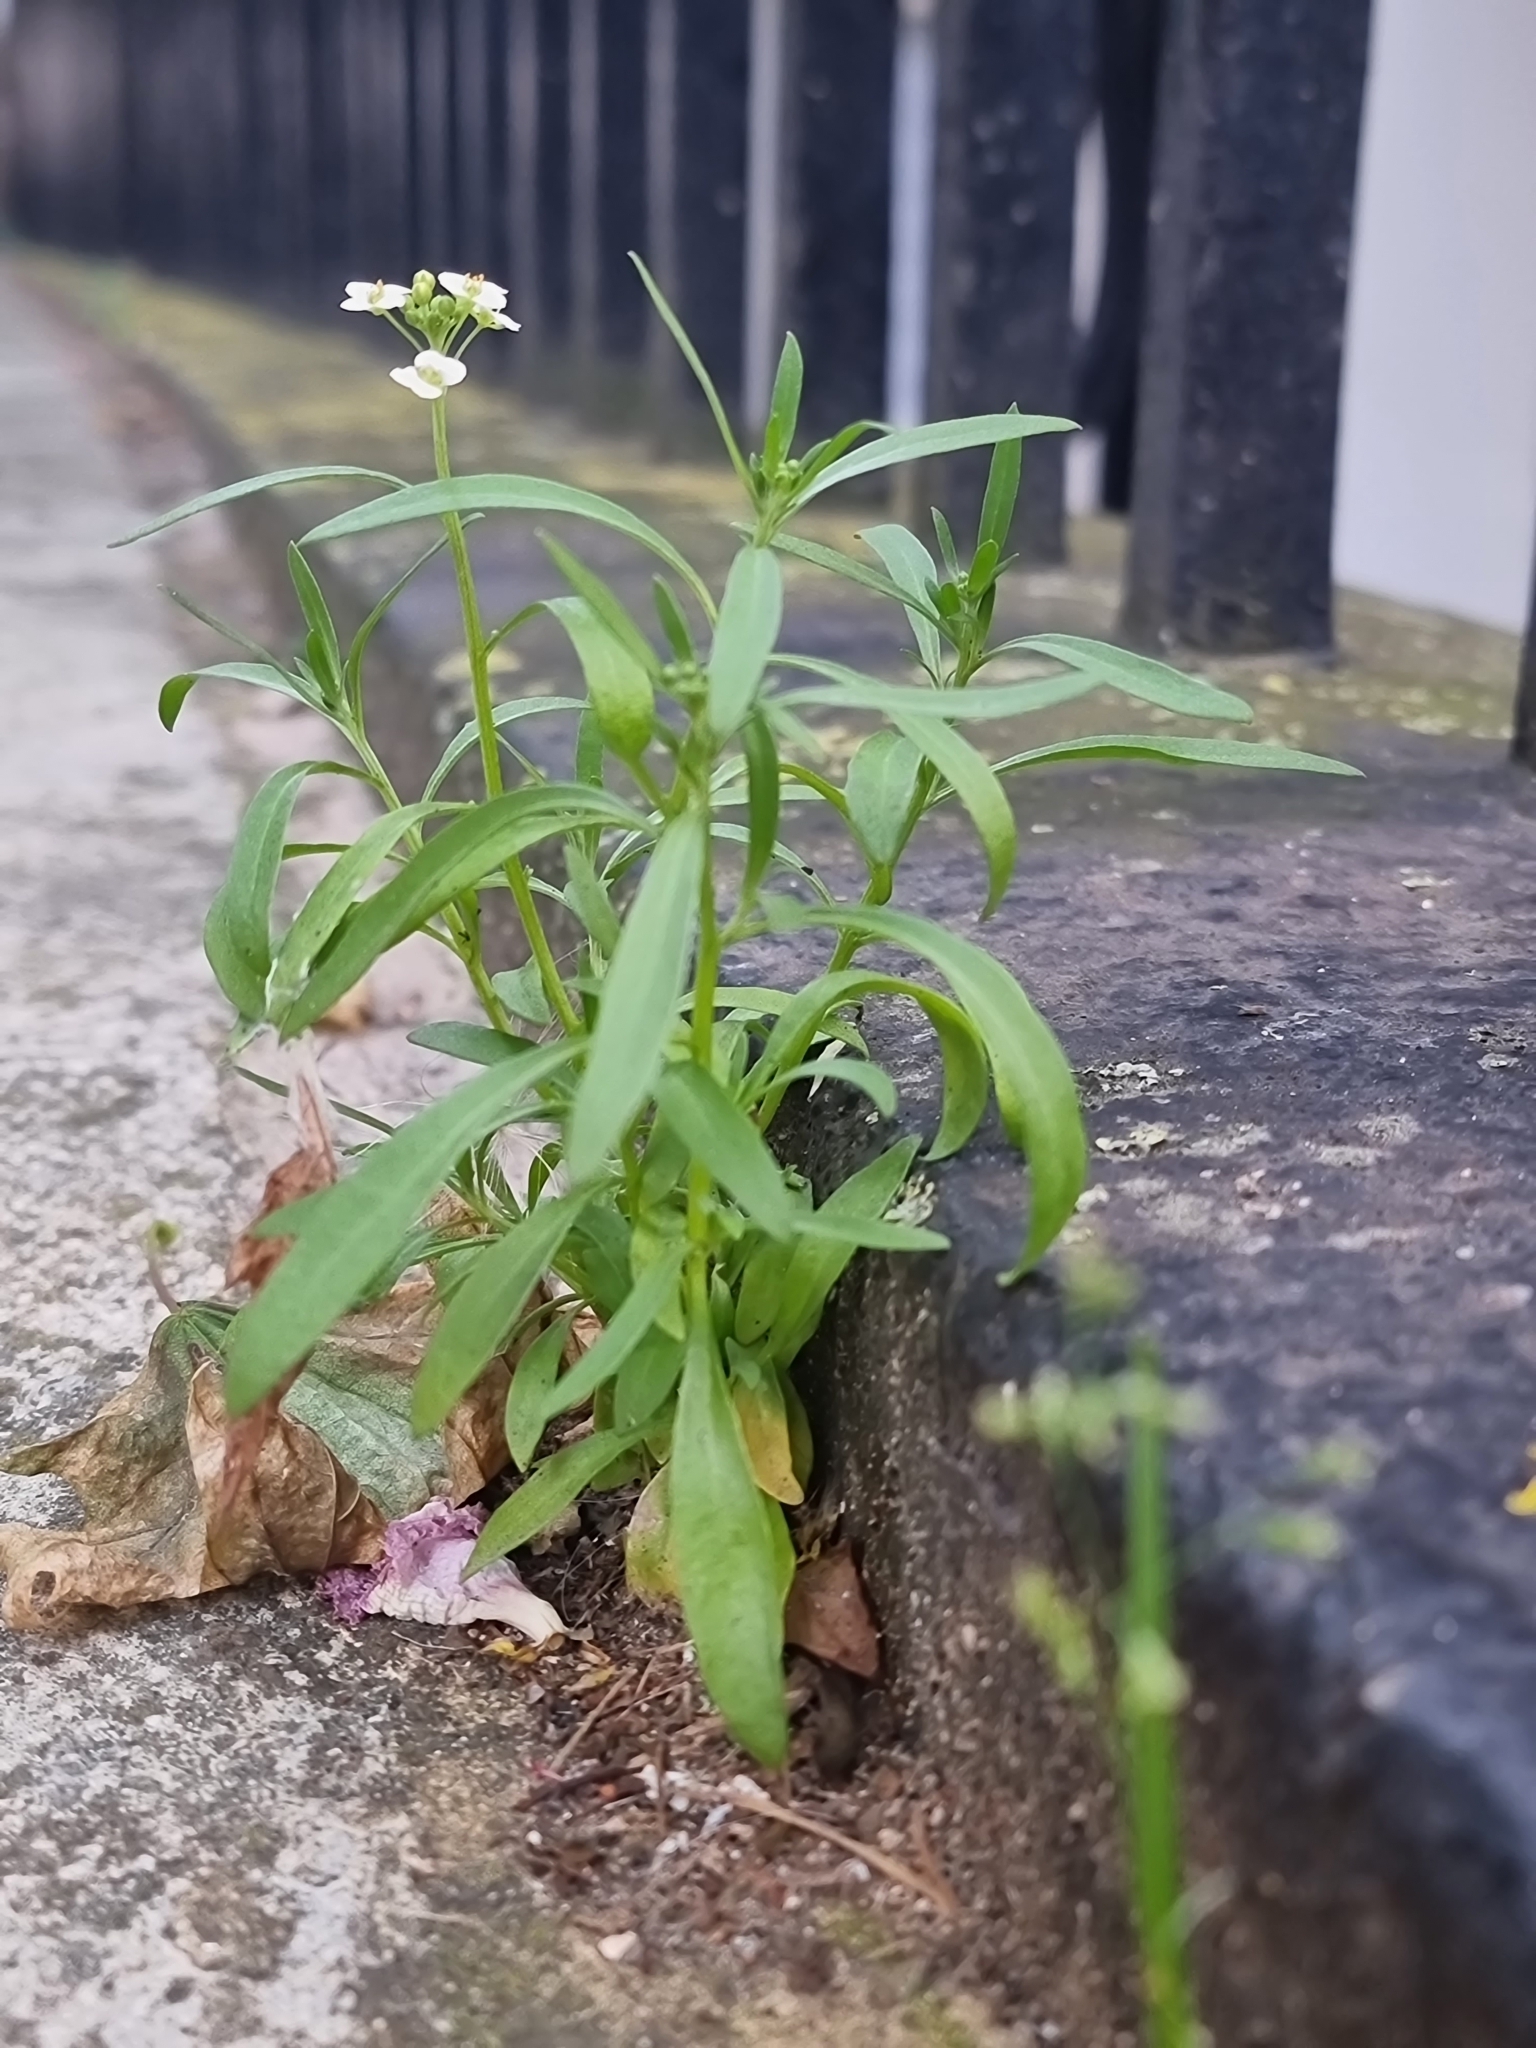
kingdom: Plantae
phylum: Tracheophyta
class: Magnoliopsida
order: Brassicales
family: Brassicaceae
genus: Lobularia
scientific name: Lobularia maritima
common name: Sweet alison
